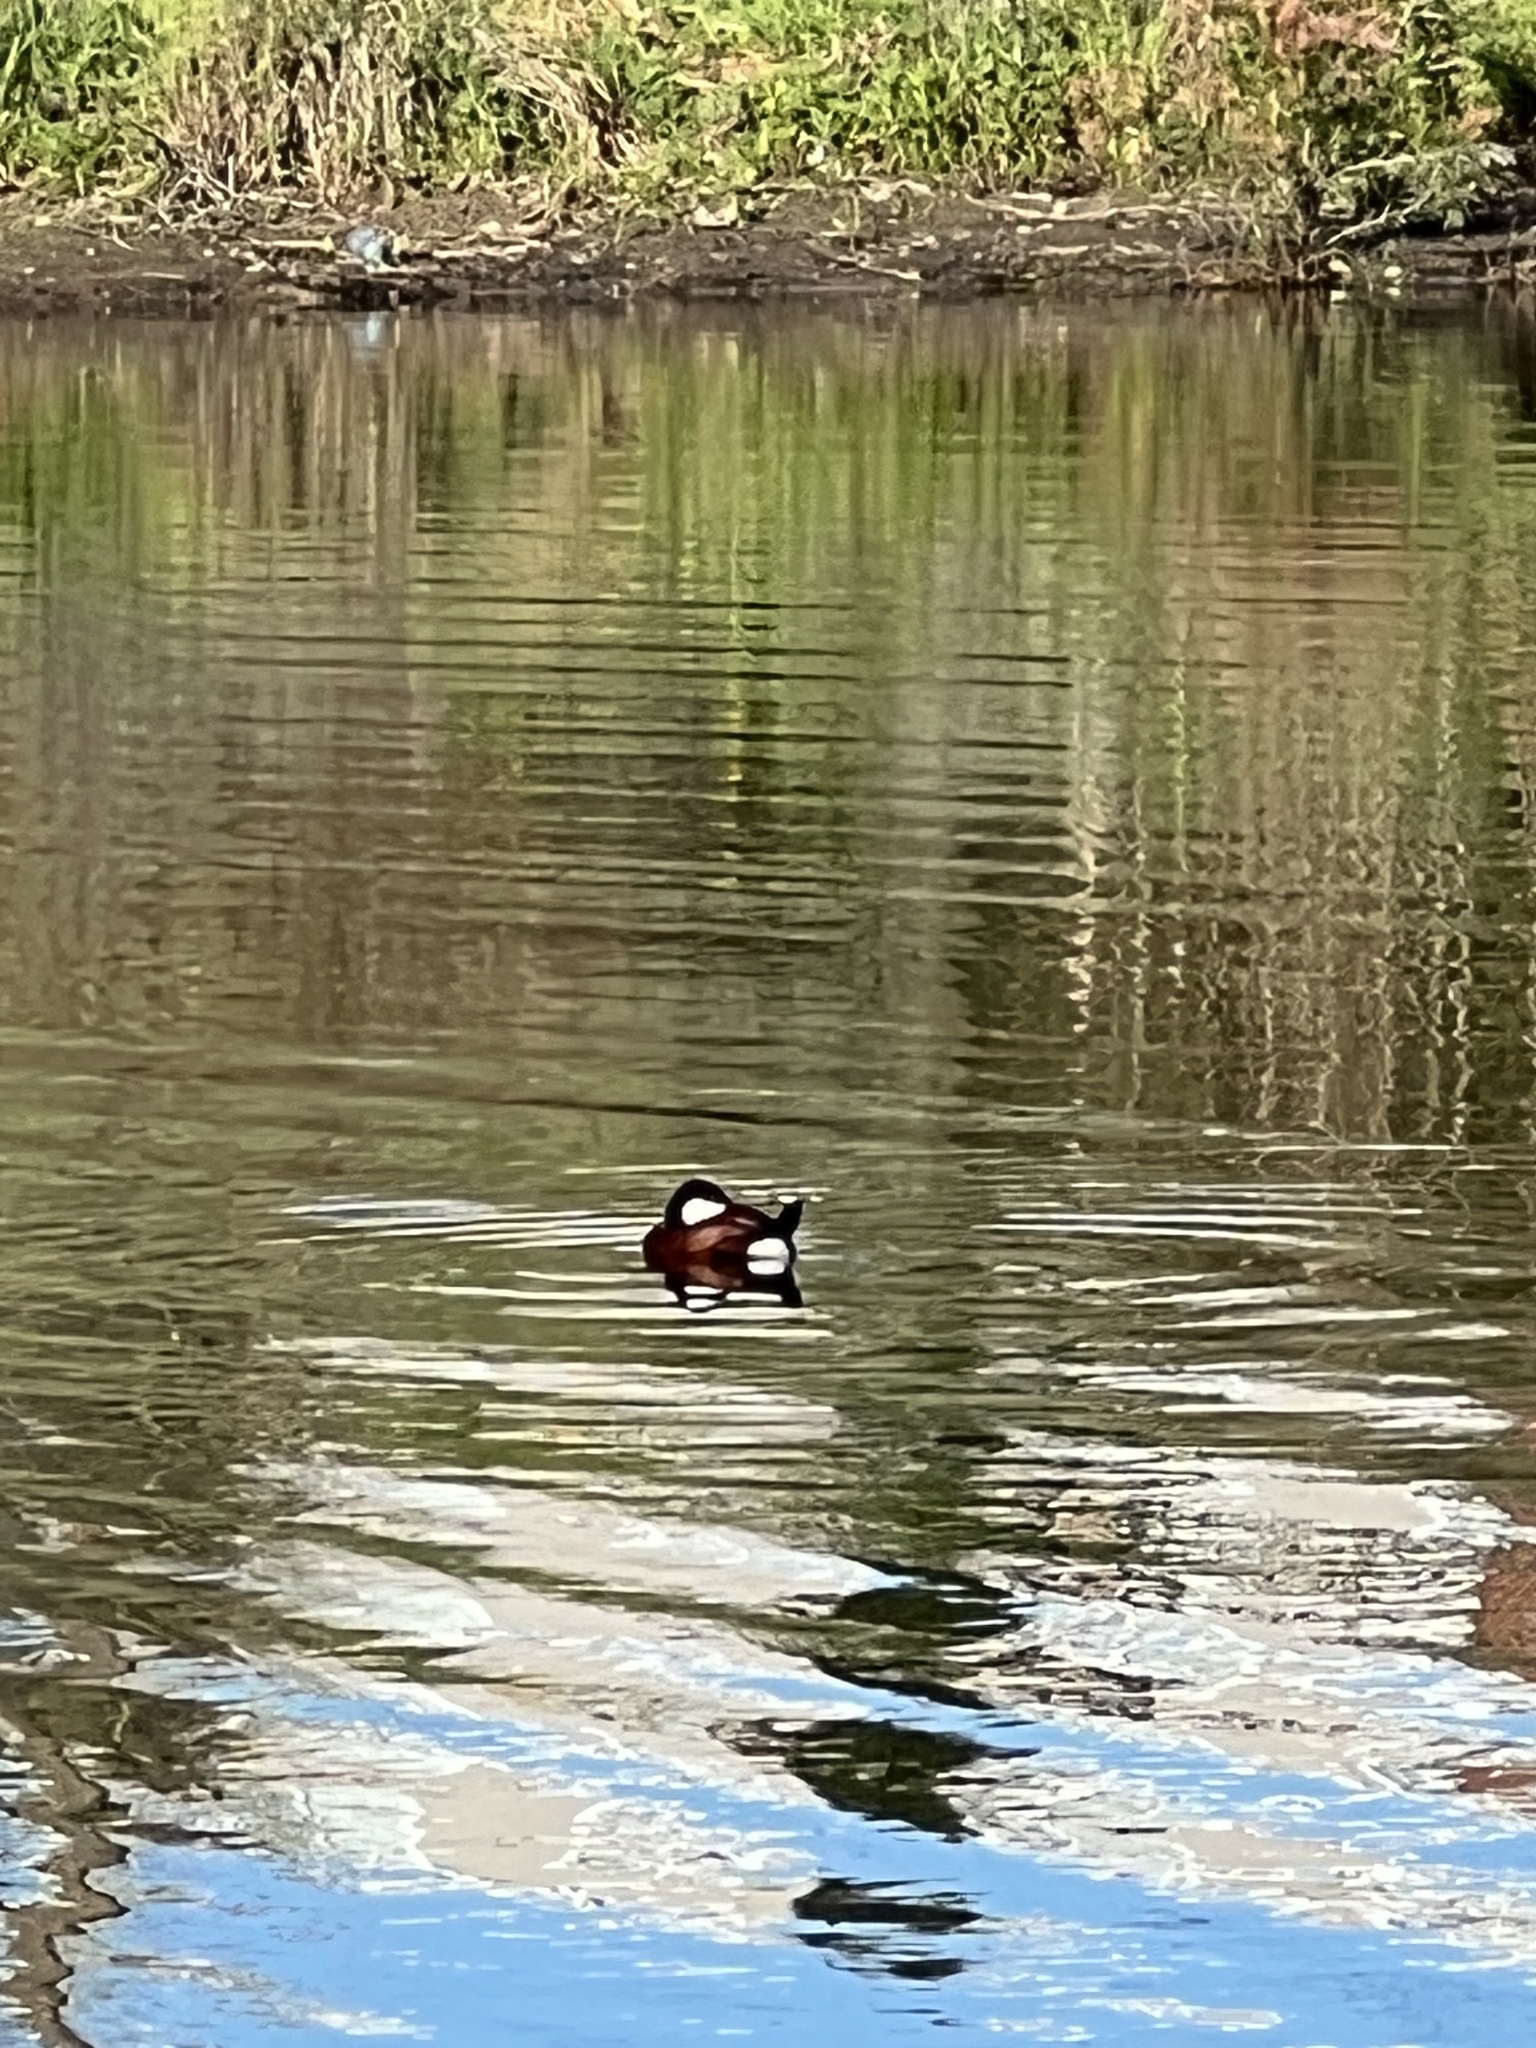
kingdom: Animalia
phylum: Chordata
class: Aves
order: Anseriformes
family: Anatidae
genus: Oxyura
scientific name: Oxyura jamaicensis
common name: Ruddy duck
